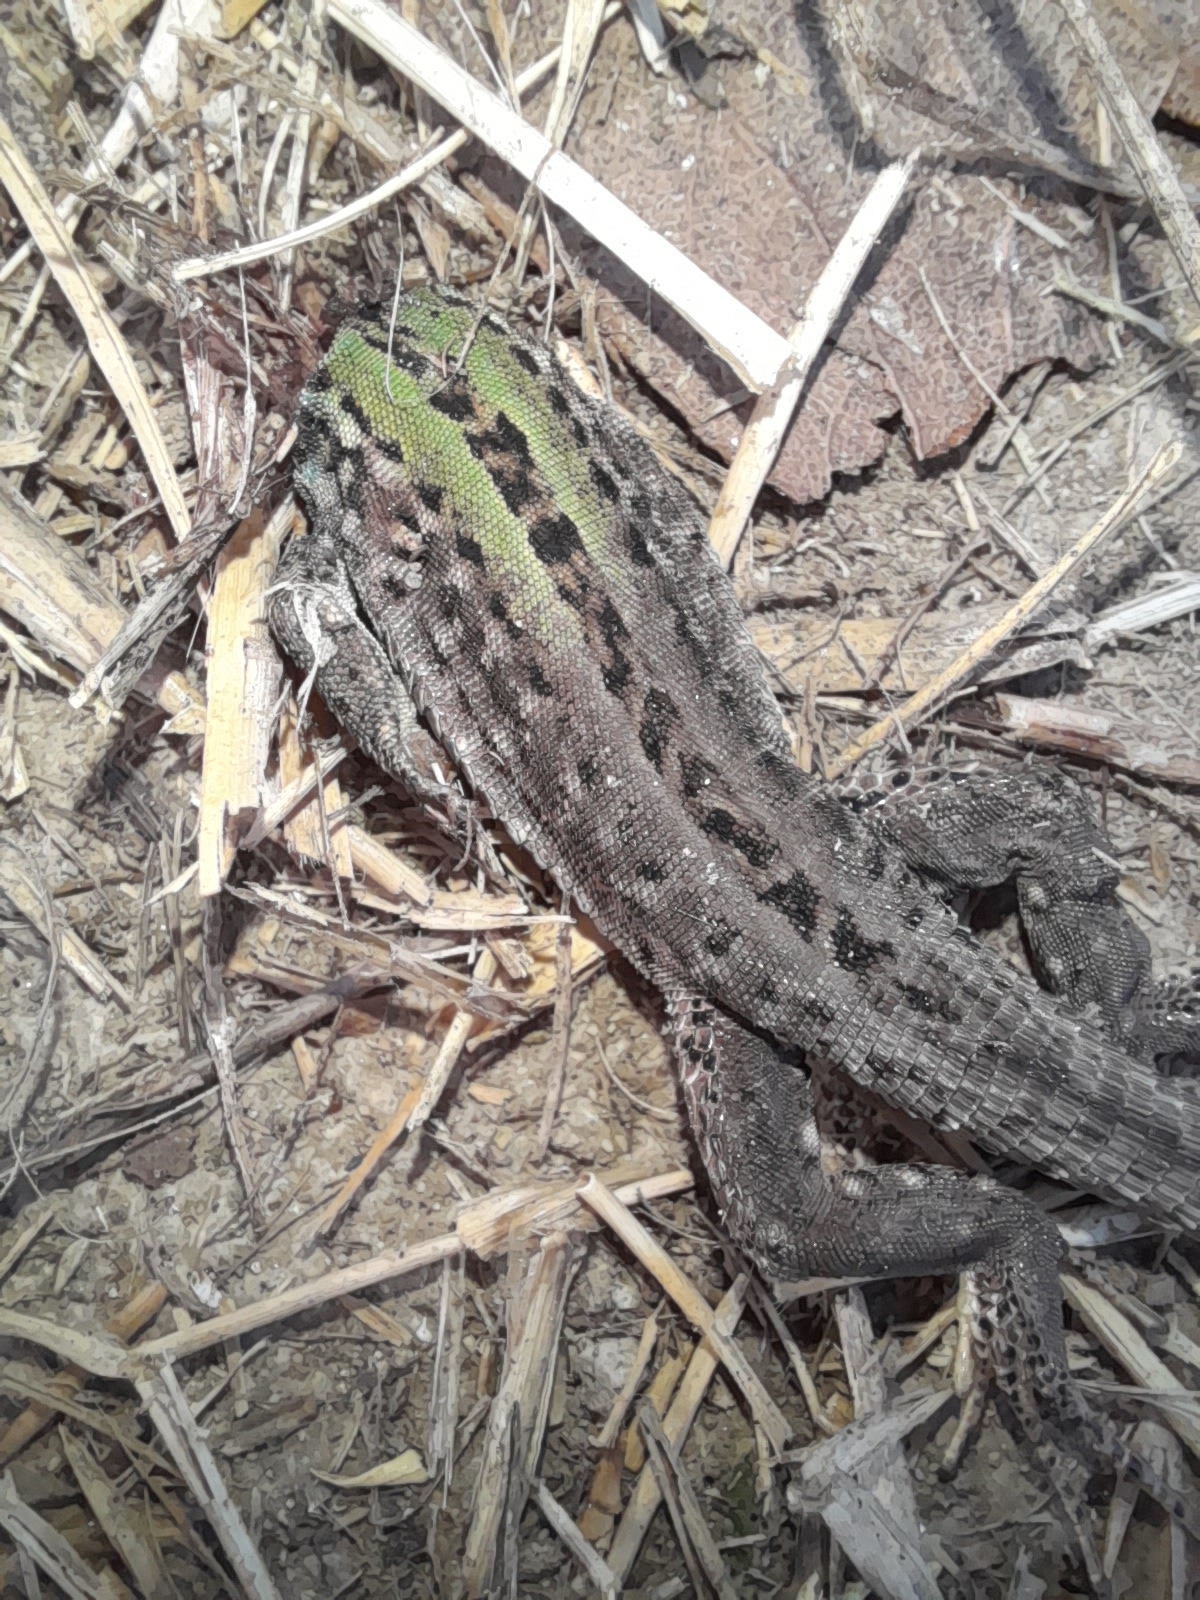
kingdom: Animalia
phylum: Chordata
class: Squamata
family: Lacertidae
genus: Podarcis
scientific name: Podarcis siculus
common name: Italian wall lizard
